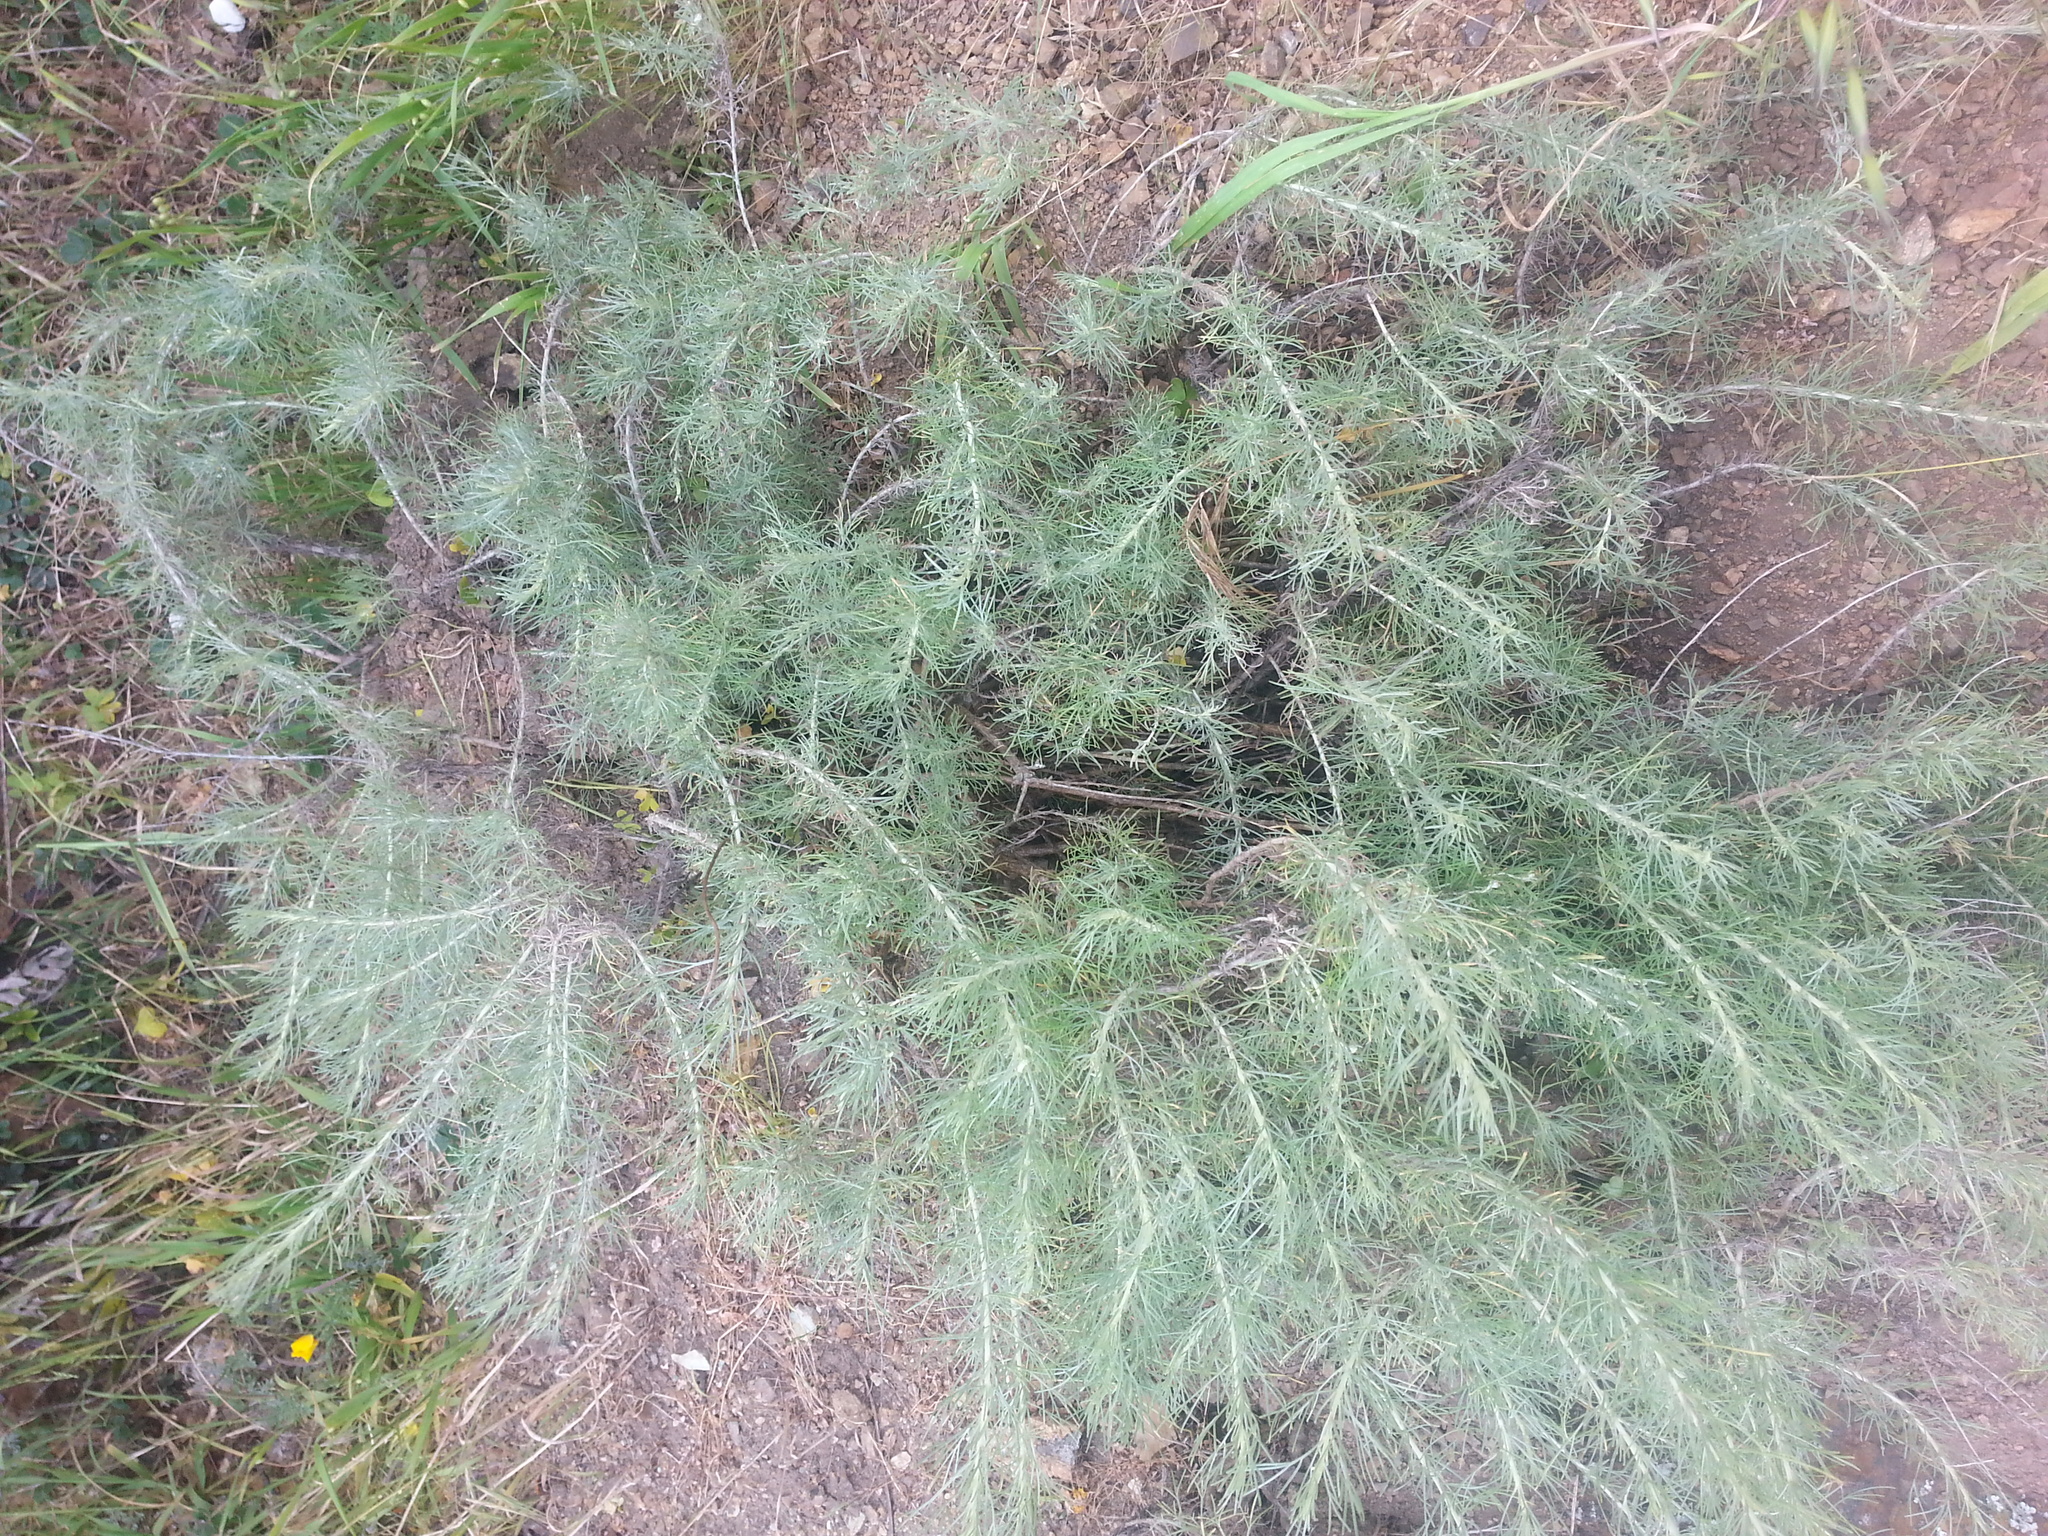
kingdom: Plantae
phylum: Tracheophyta
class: Magnoliopsida
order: Asterales
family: Asteraceae
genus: Artemisia
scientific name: Artemisia californica
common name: California sagebrush
